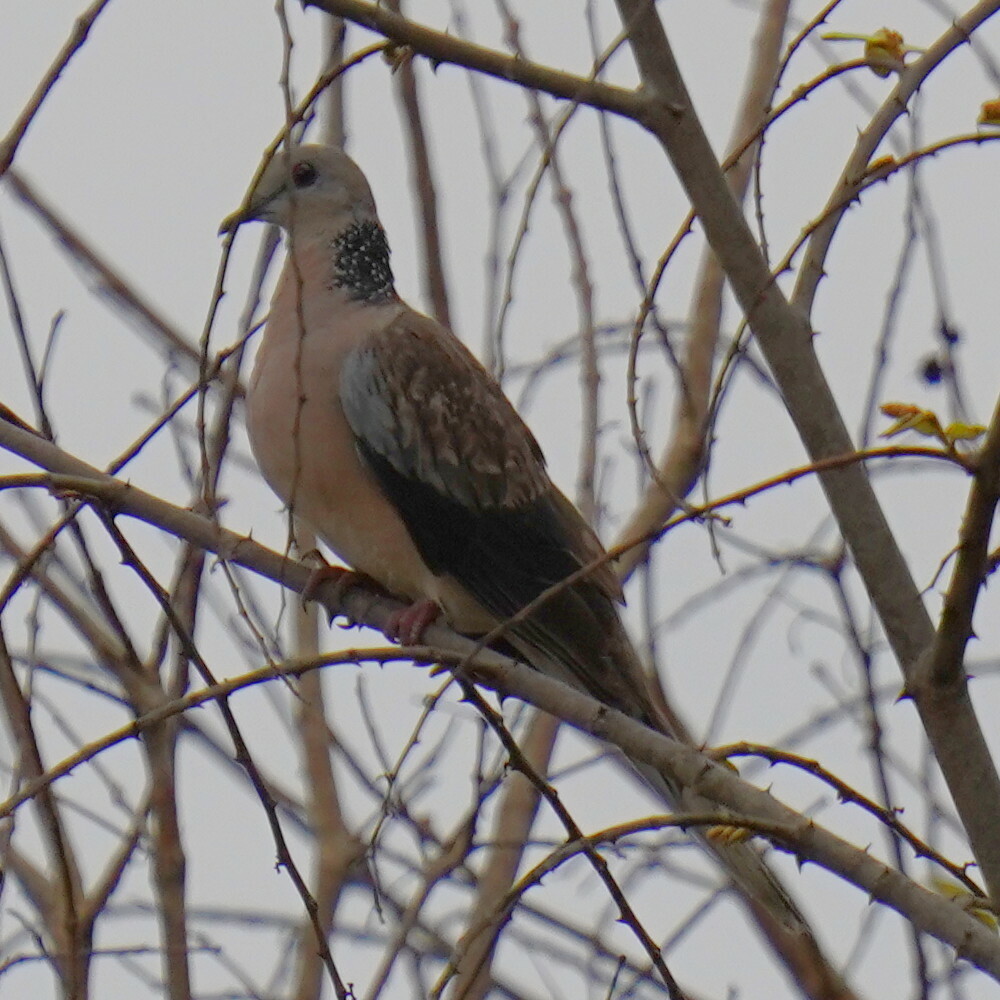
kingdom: Animalia
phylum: Chordata
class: Aves
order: Columbiformes
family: Columbidae
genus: Spilopelia
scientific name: Spilopelia chinensis
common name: Spotted dove
